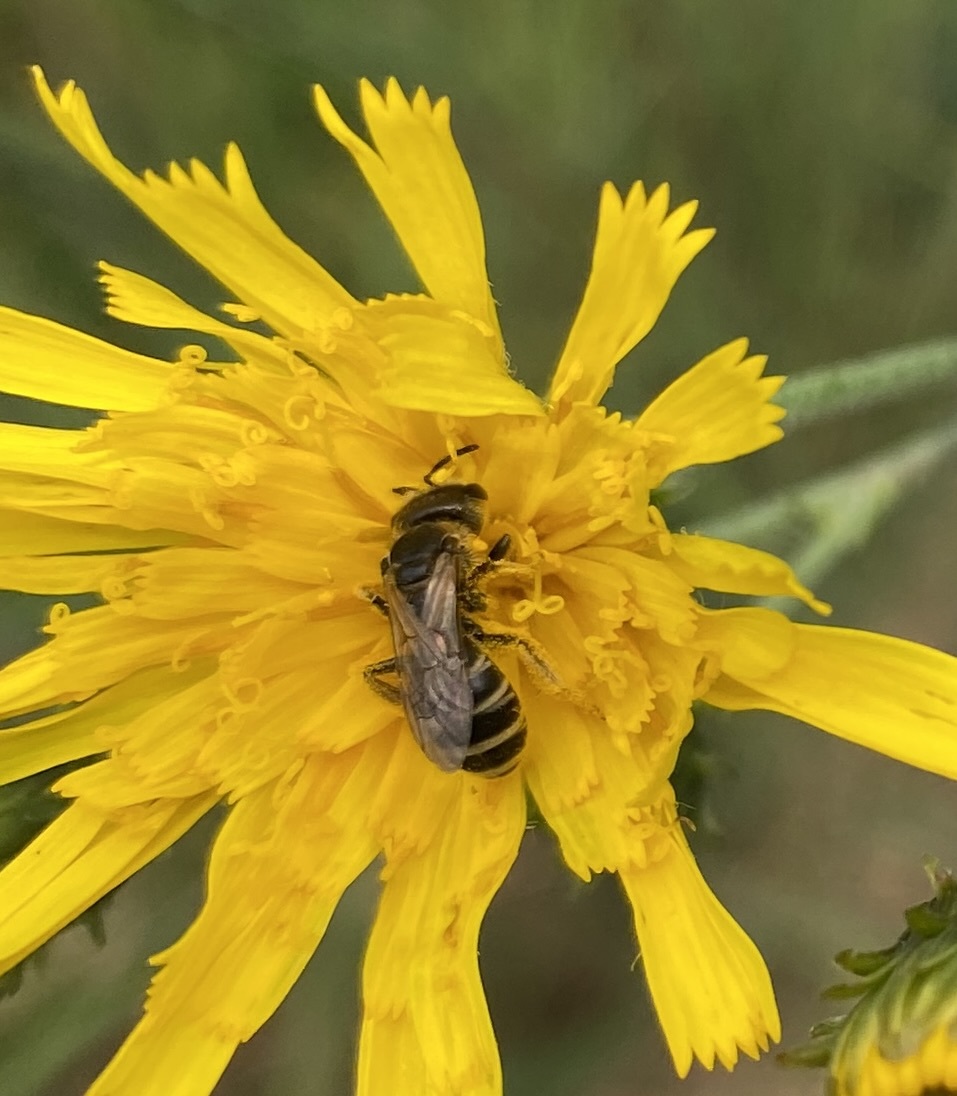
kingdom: Animalia
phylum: Arthropoda
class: Insecta
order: Hymenoptera
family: Halictidae
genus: Halictus
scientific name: Halictus ligatus
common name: Ligated furrow bee
